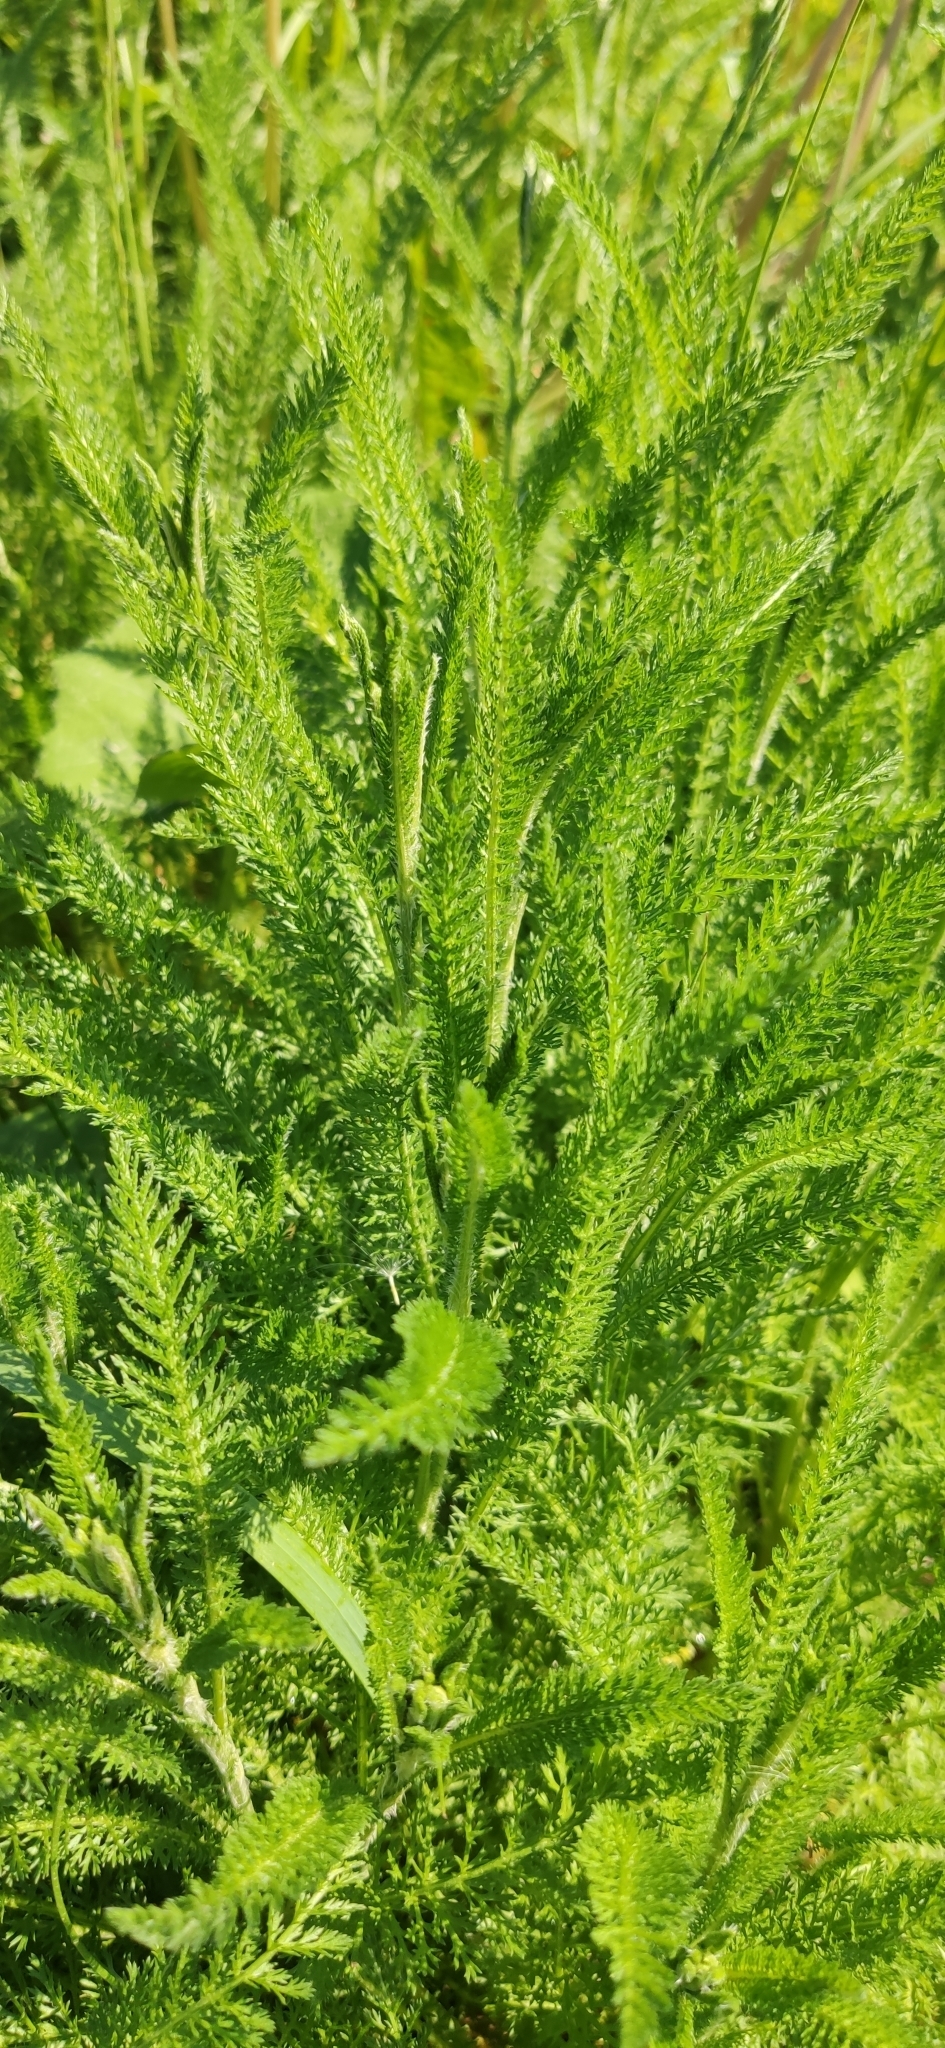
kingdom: Plantae
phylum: Tracheophyta
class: Magnoliopsida
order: Asterales
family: Asteraceae
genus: Achillea
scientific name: Achillea millefolium
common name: Yarrow
